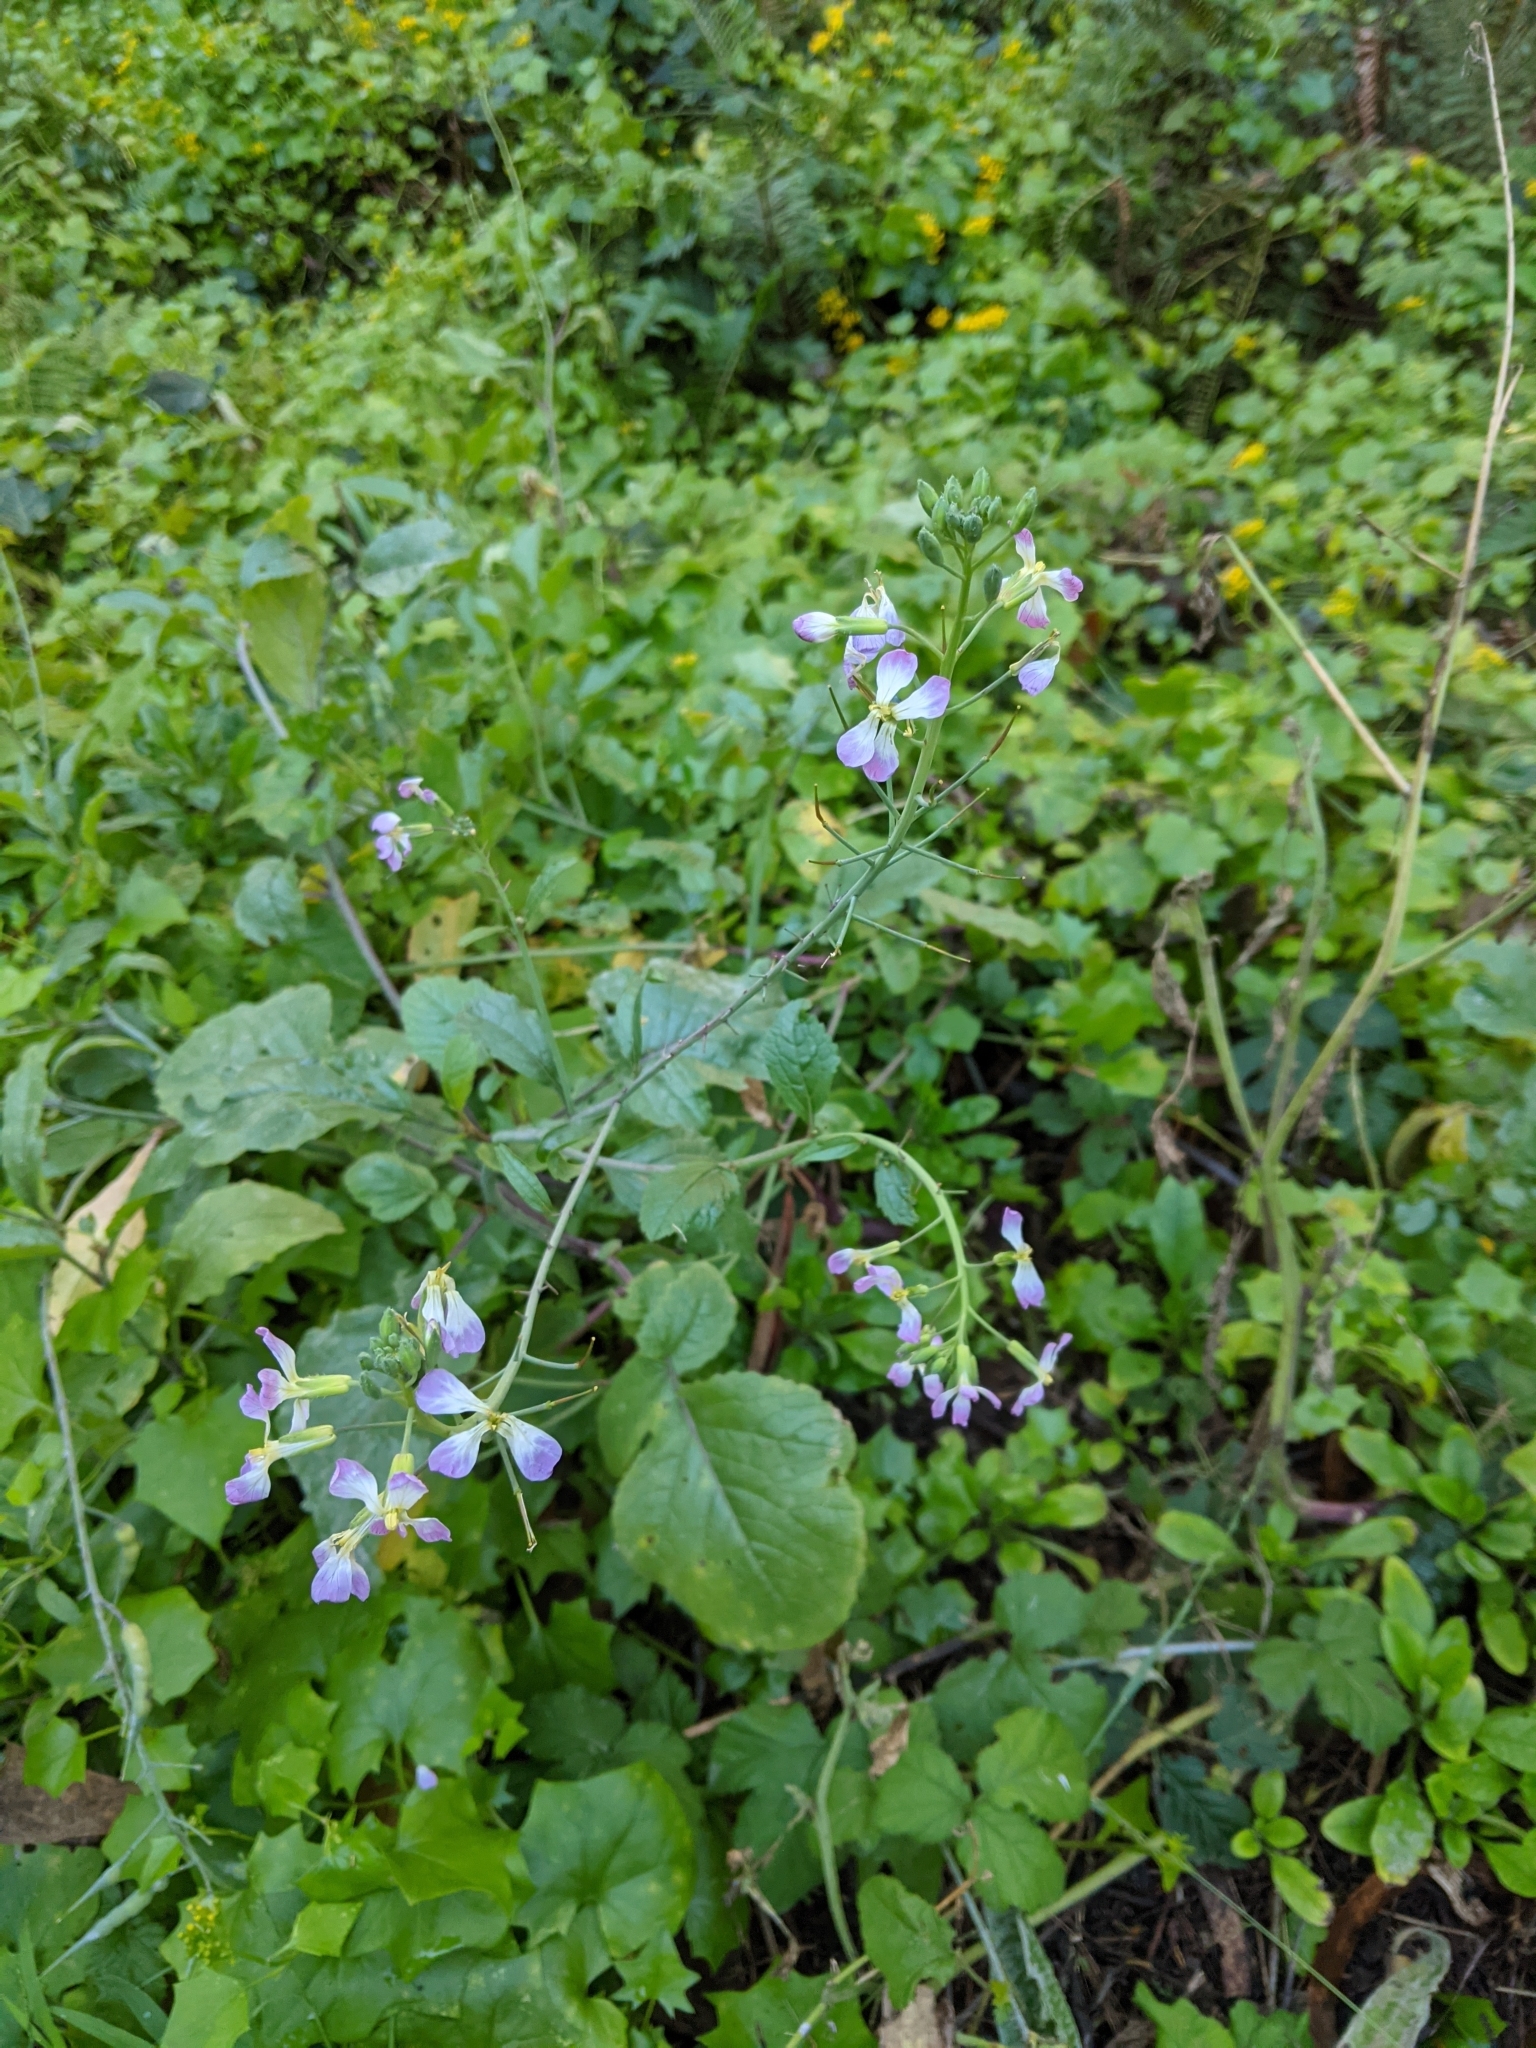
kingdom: Plantae
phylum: Tracheophyta
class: Magnoliopsida
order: Brassicales
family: Brassicaceae
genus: Raphanus
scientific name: Raphanus raphanistrum
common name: Wild radish
